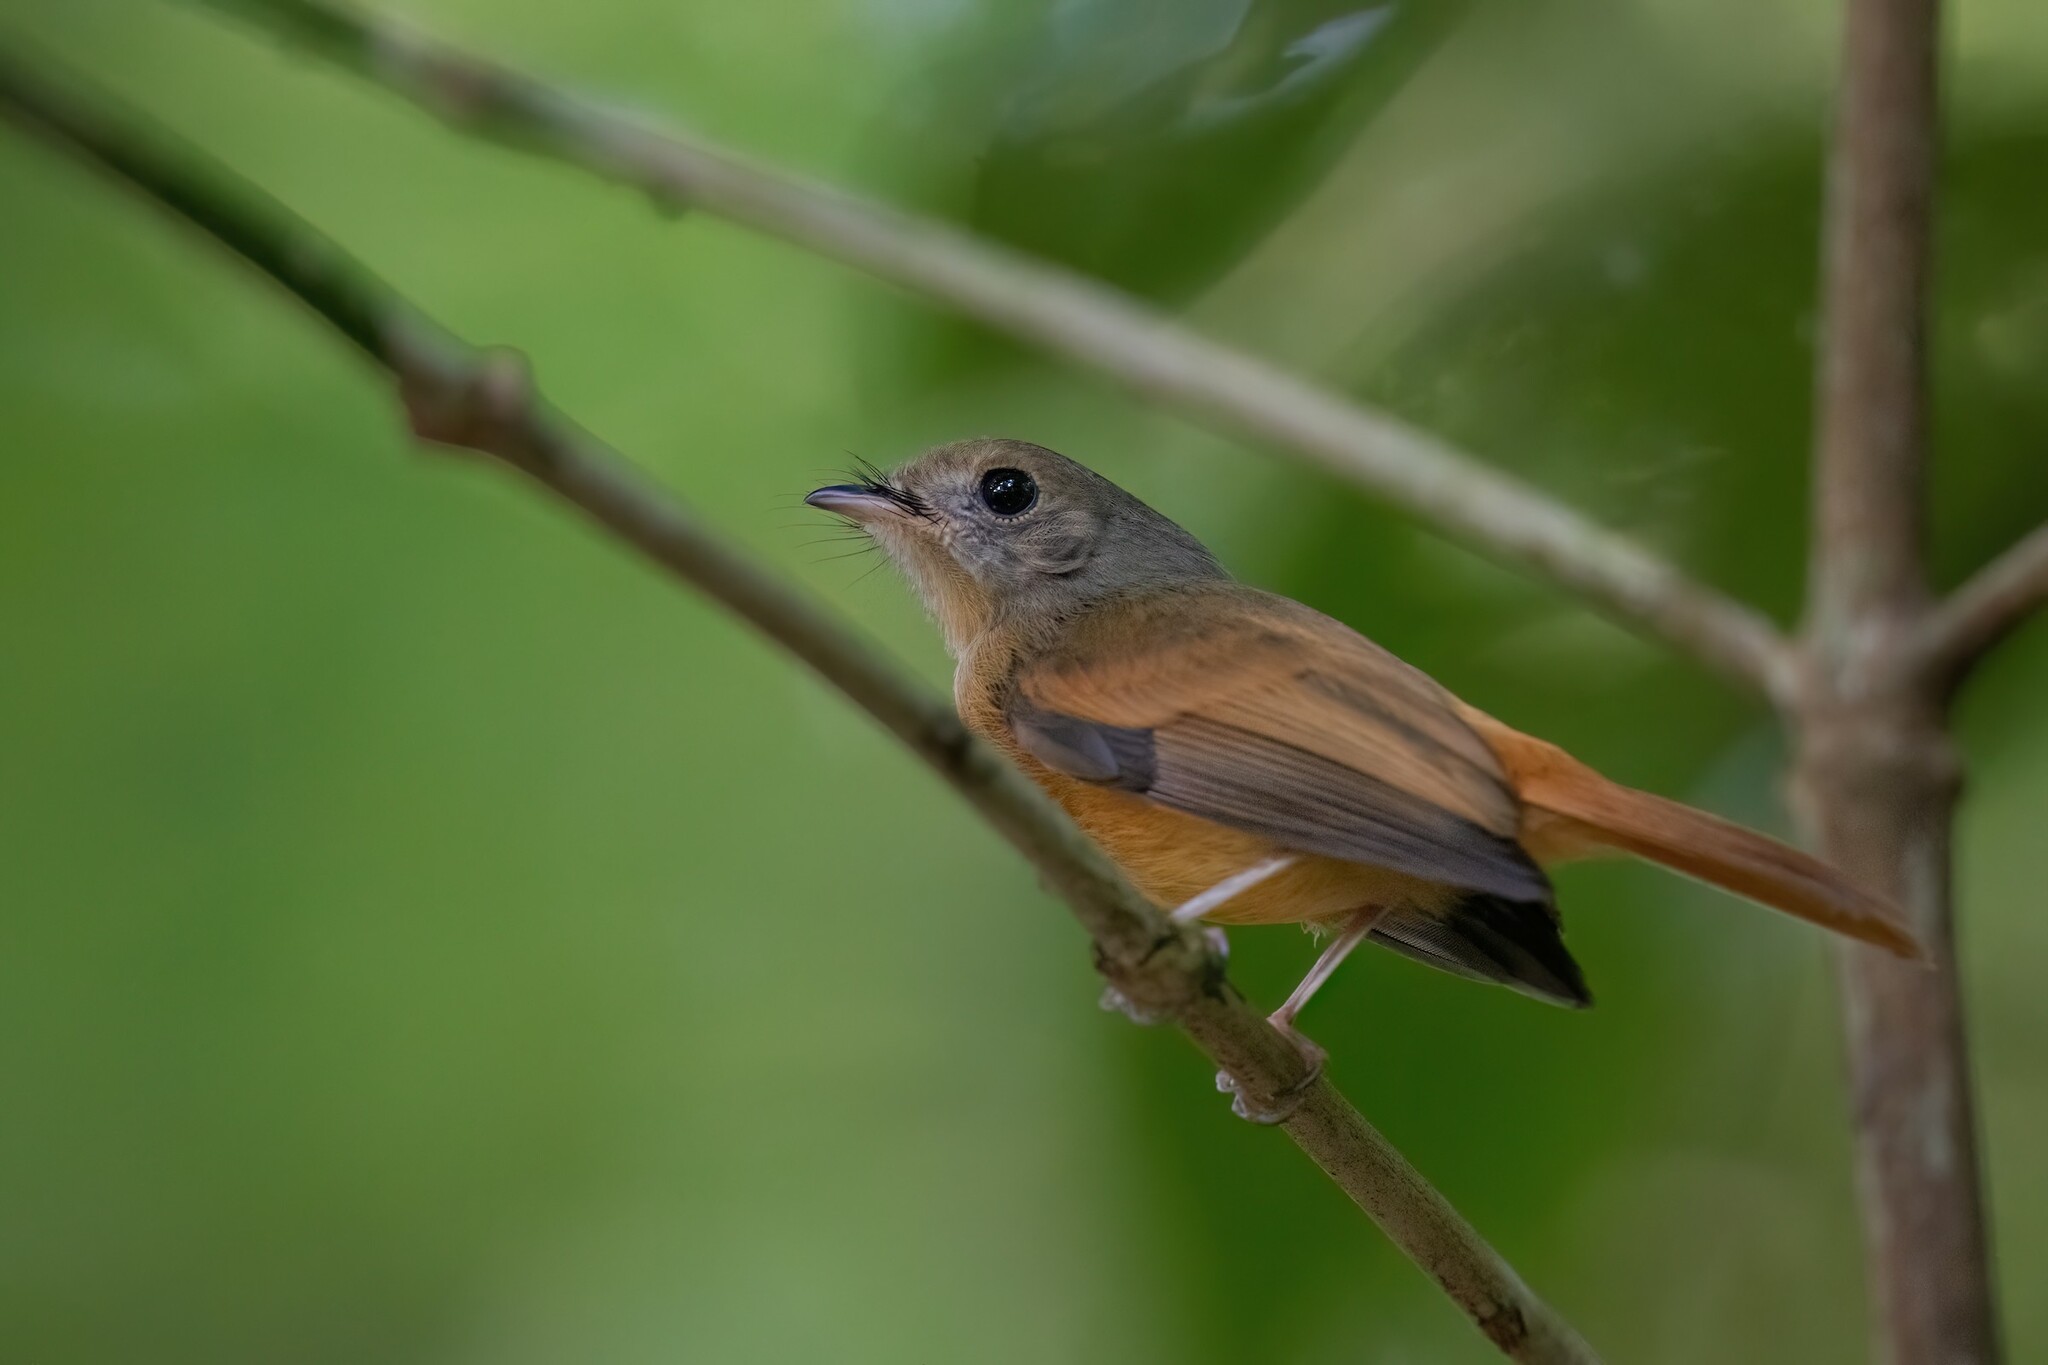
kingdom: Animalia
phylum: Chordata
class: Aves
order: Passeriformes
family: Tyrannidae
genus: Terenotriccus
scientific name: Terenotriccus erythrurus
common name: Ruddy-tailed flycatcher
